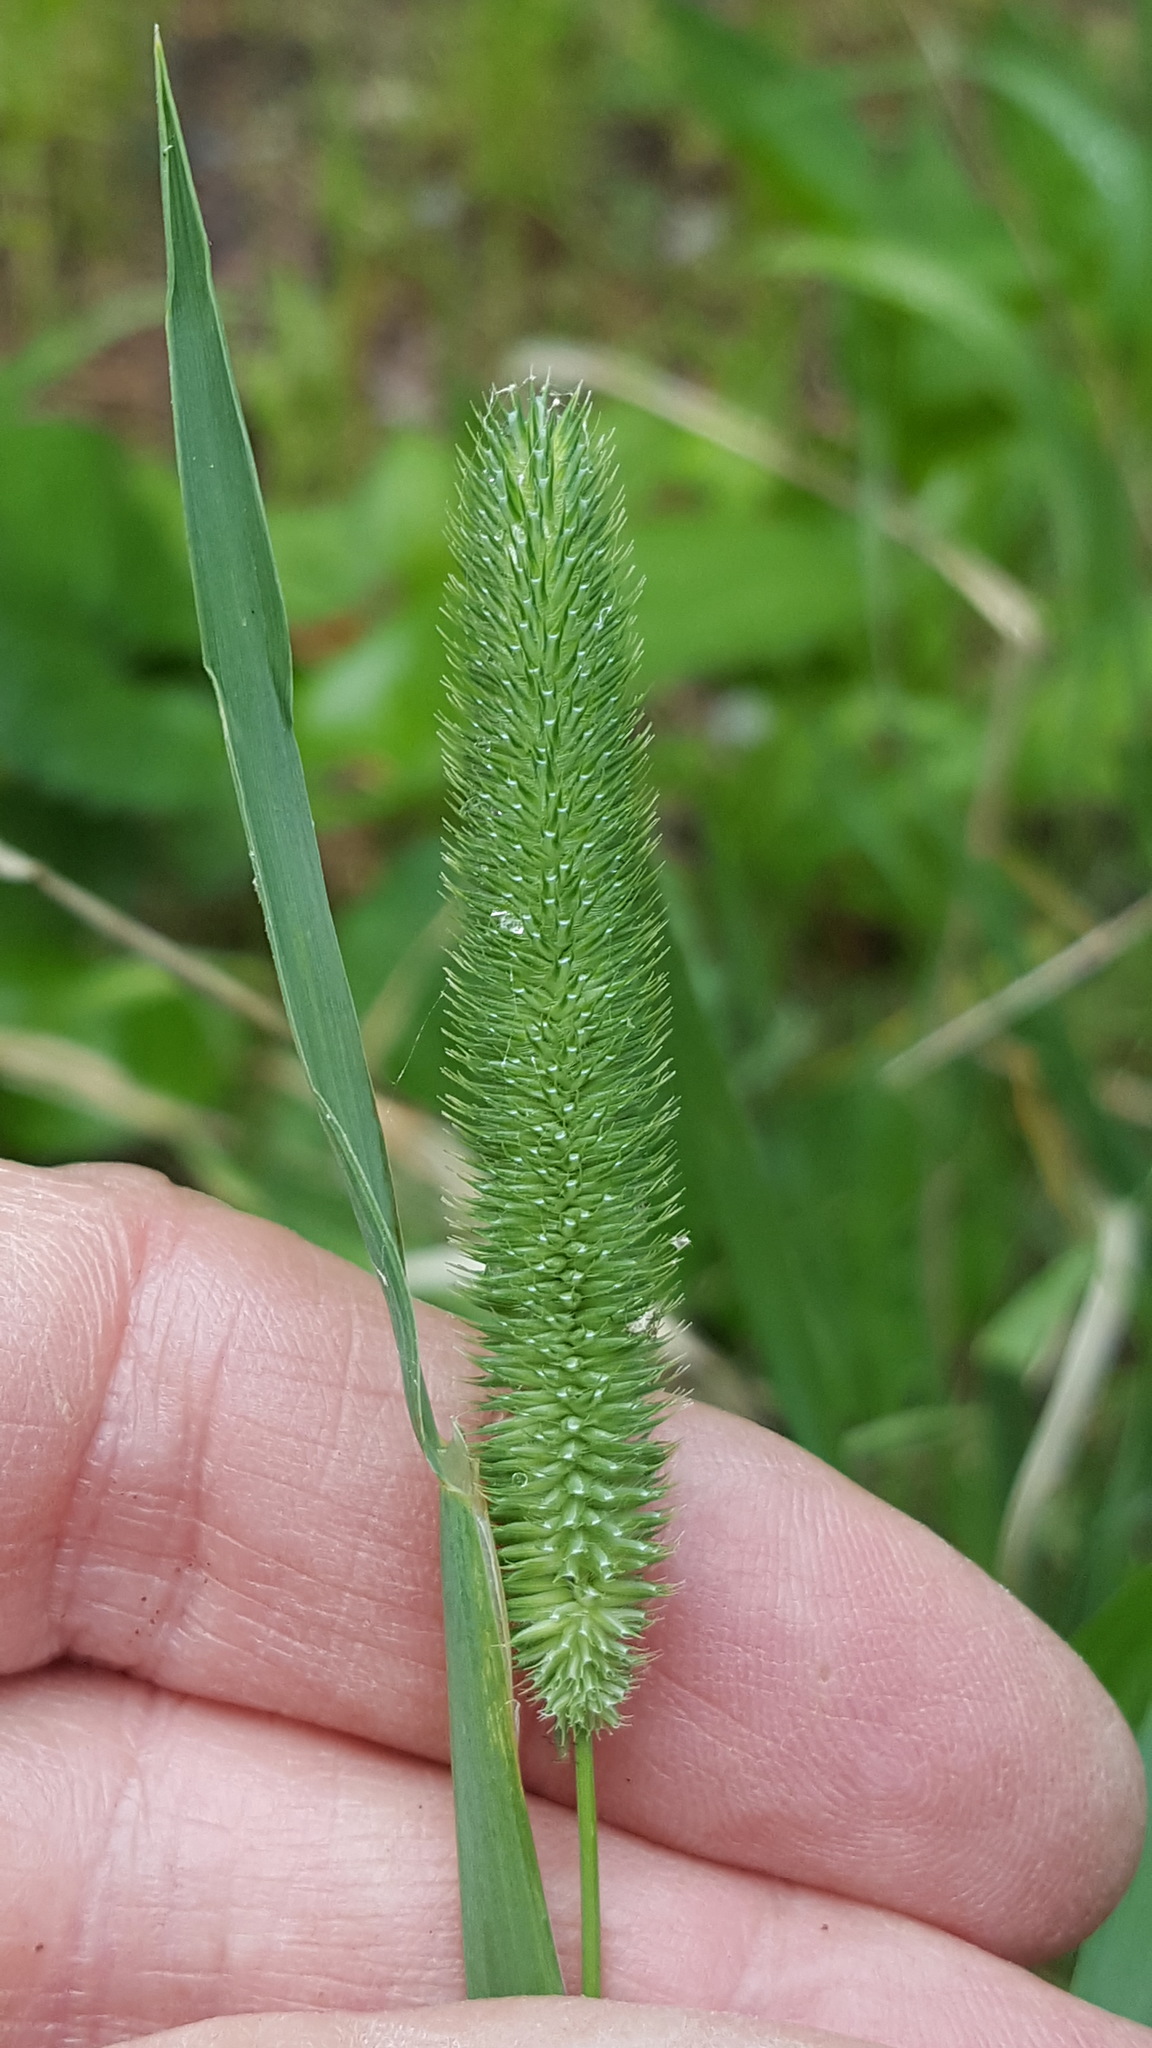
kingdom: Plantae
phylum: Tracheophyta
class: Liliopsida
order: Poales
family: Poaceae
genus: Phleum
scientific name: Phleum pratense
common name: Timothy grass
